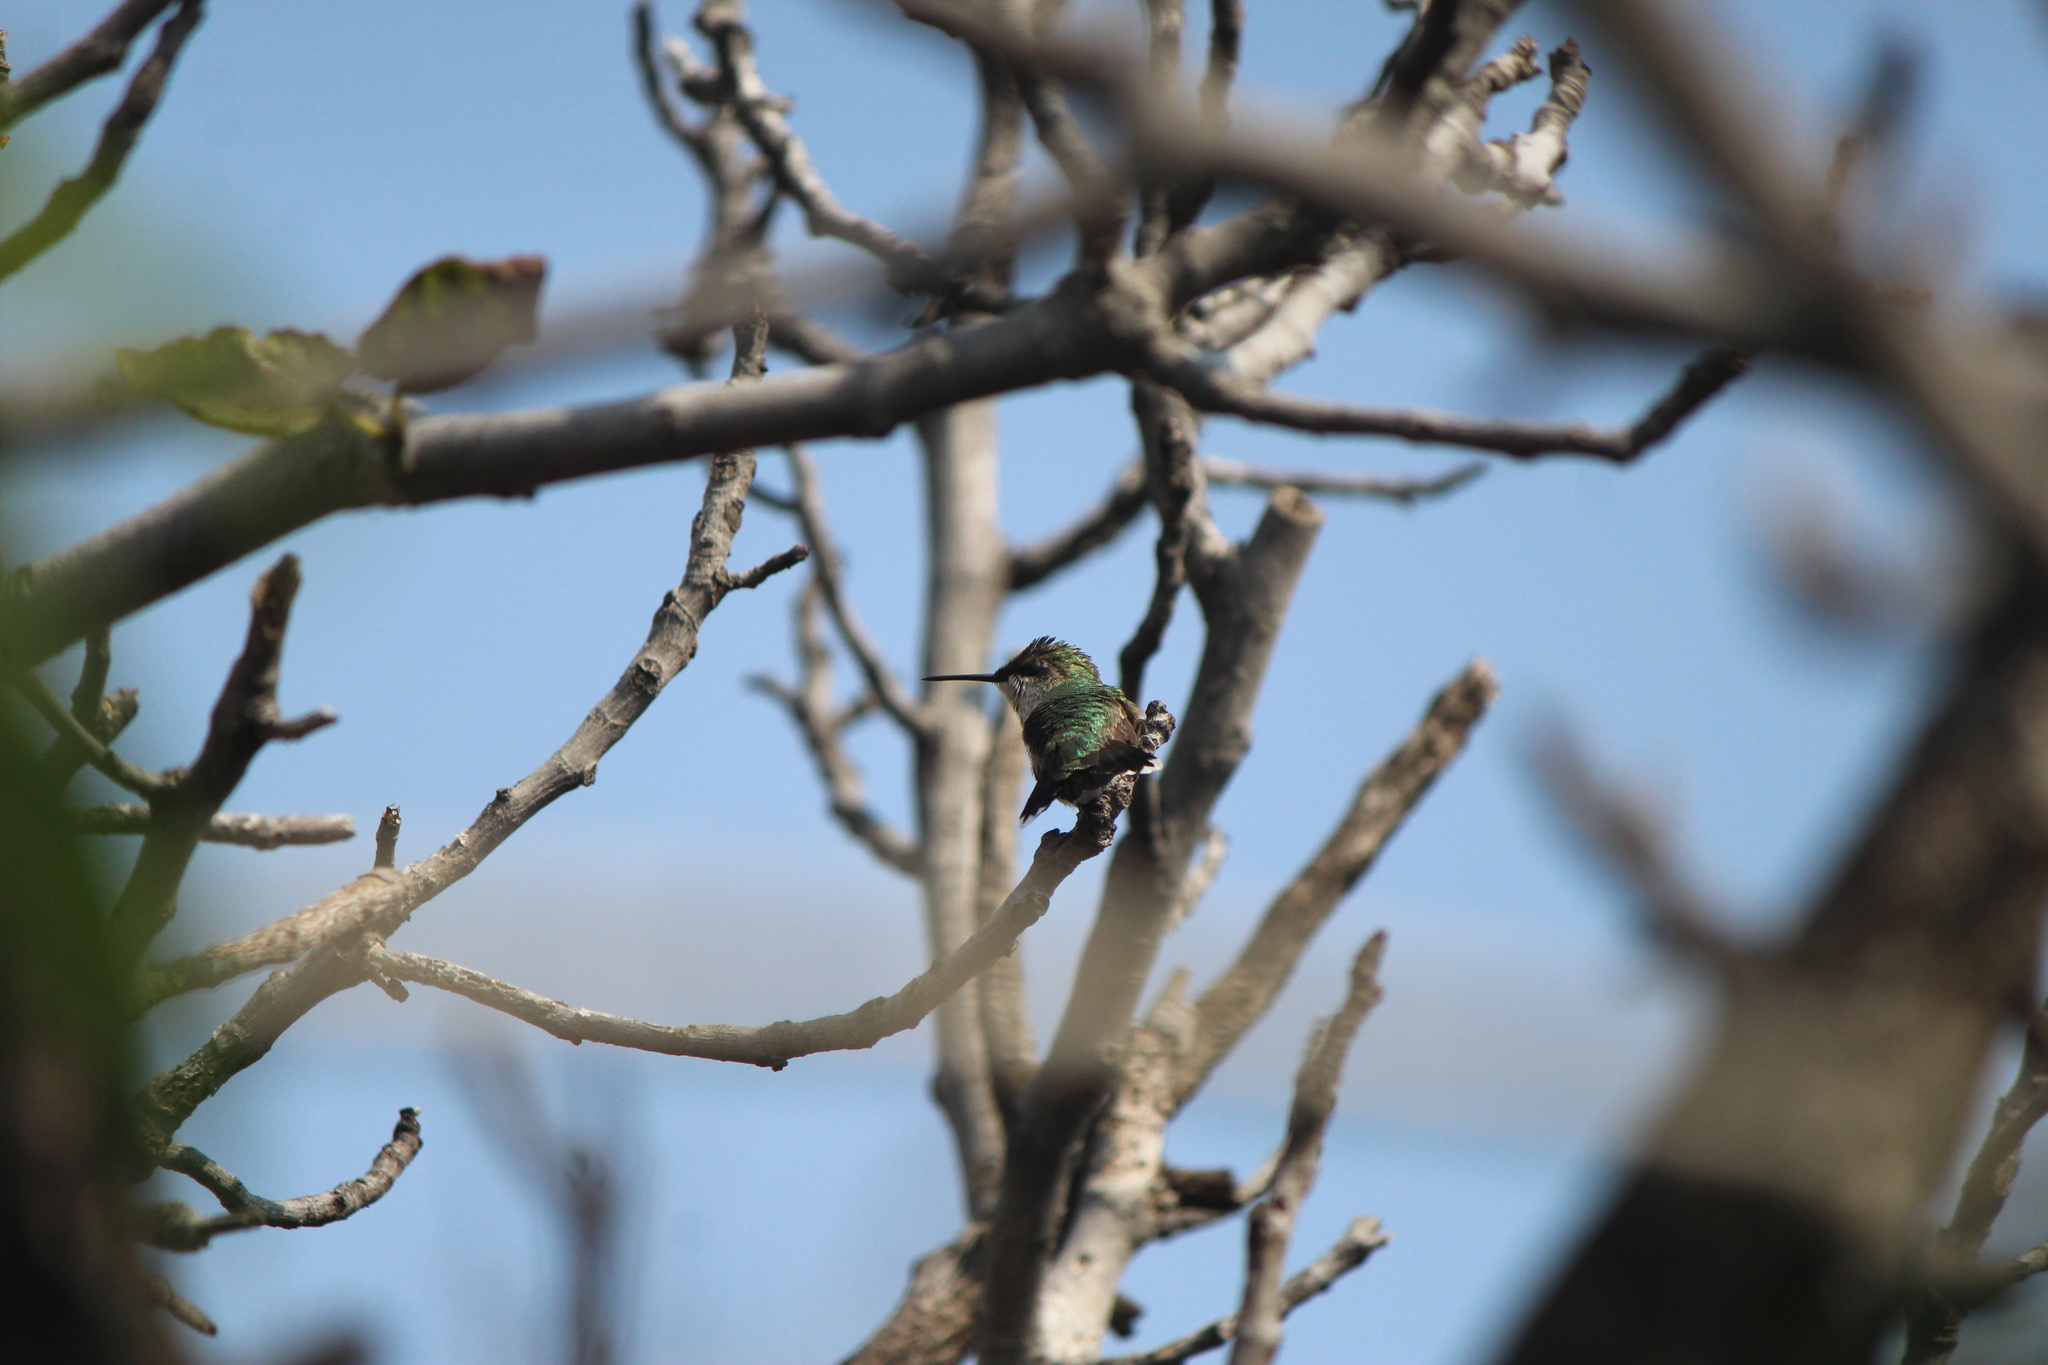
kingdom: Animalia
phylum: Chordata
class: Aves
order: Apodiformes
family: Trochilidae
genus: Archilochus
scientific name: Archilochus colubris
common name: Ruby-throated hummingbird
